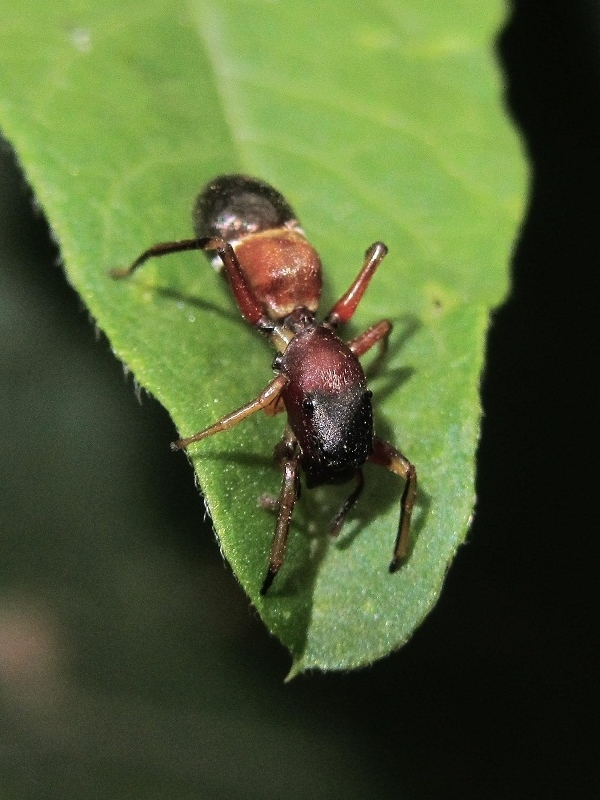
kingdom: Animalia
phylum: Arthropoda
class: Arachnida
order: Araneae
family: Salticidae
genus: Leptorchestes
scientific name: Leptorchestes berolinensis
